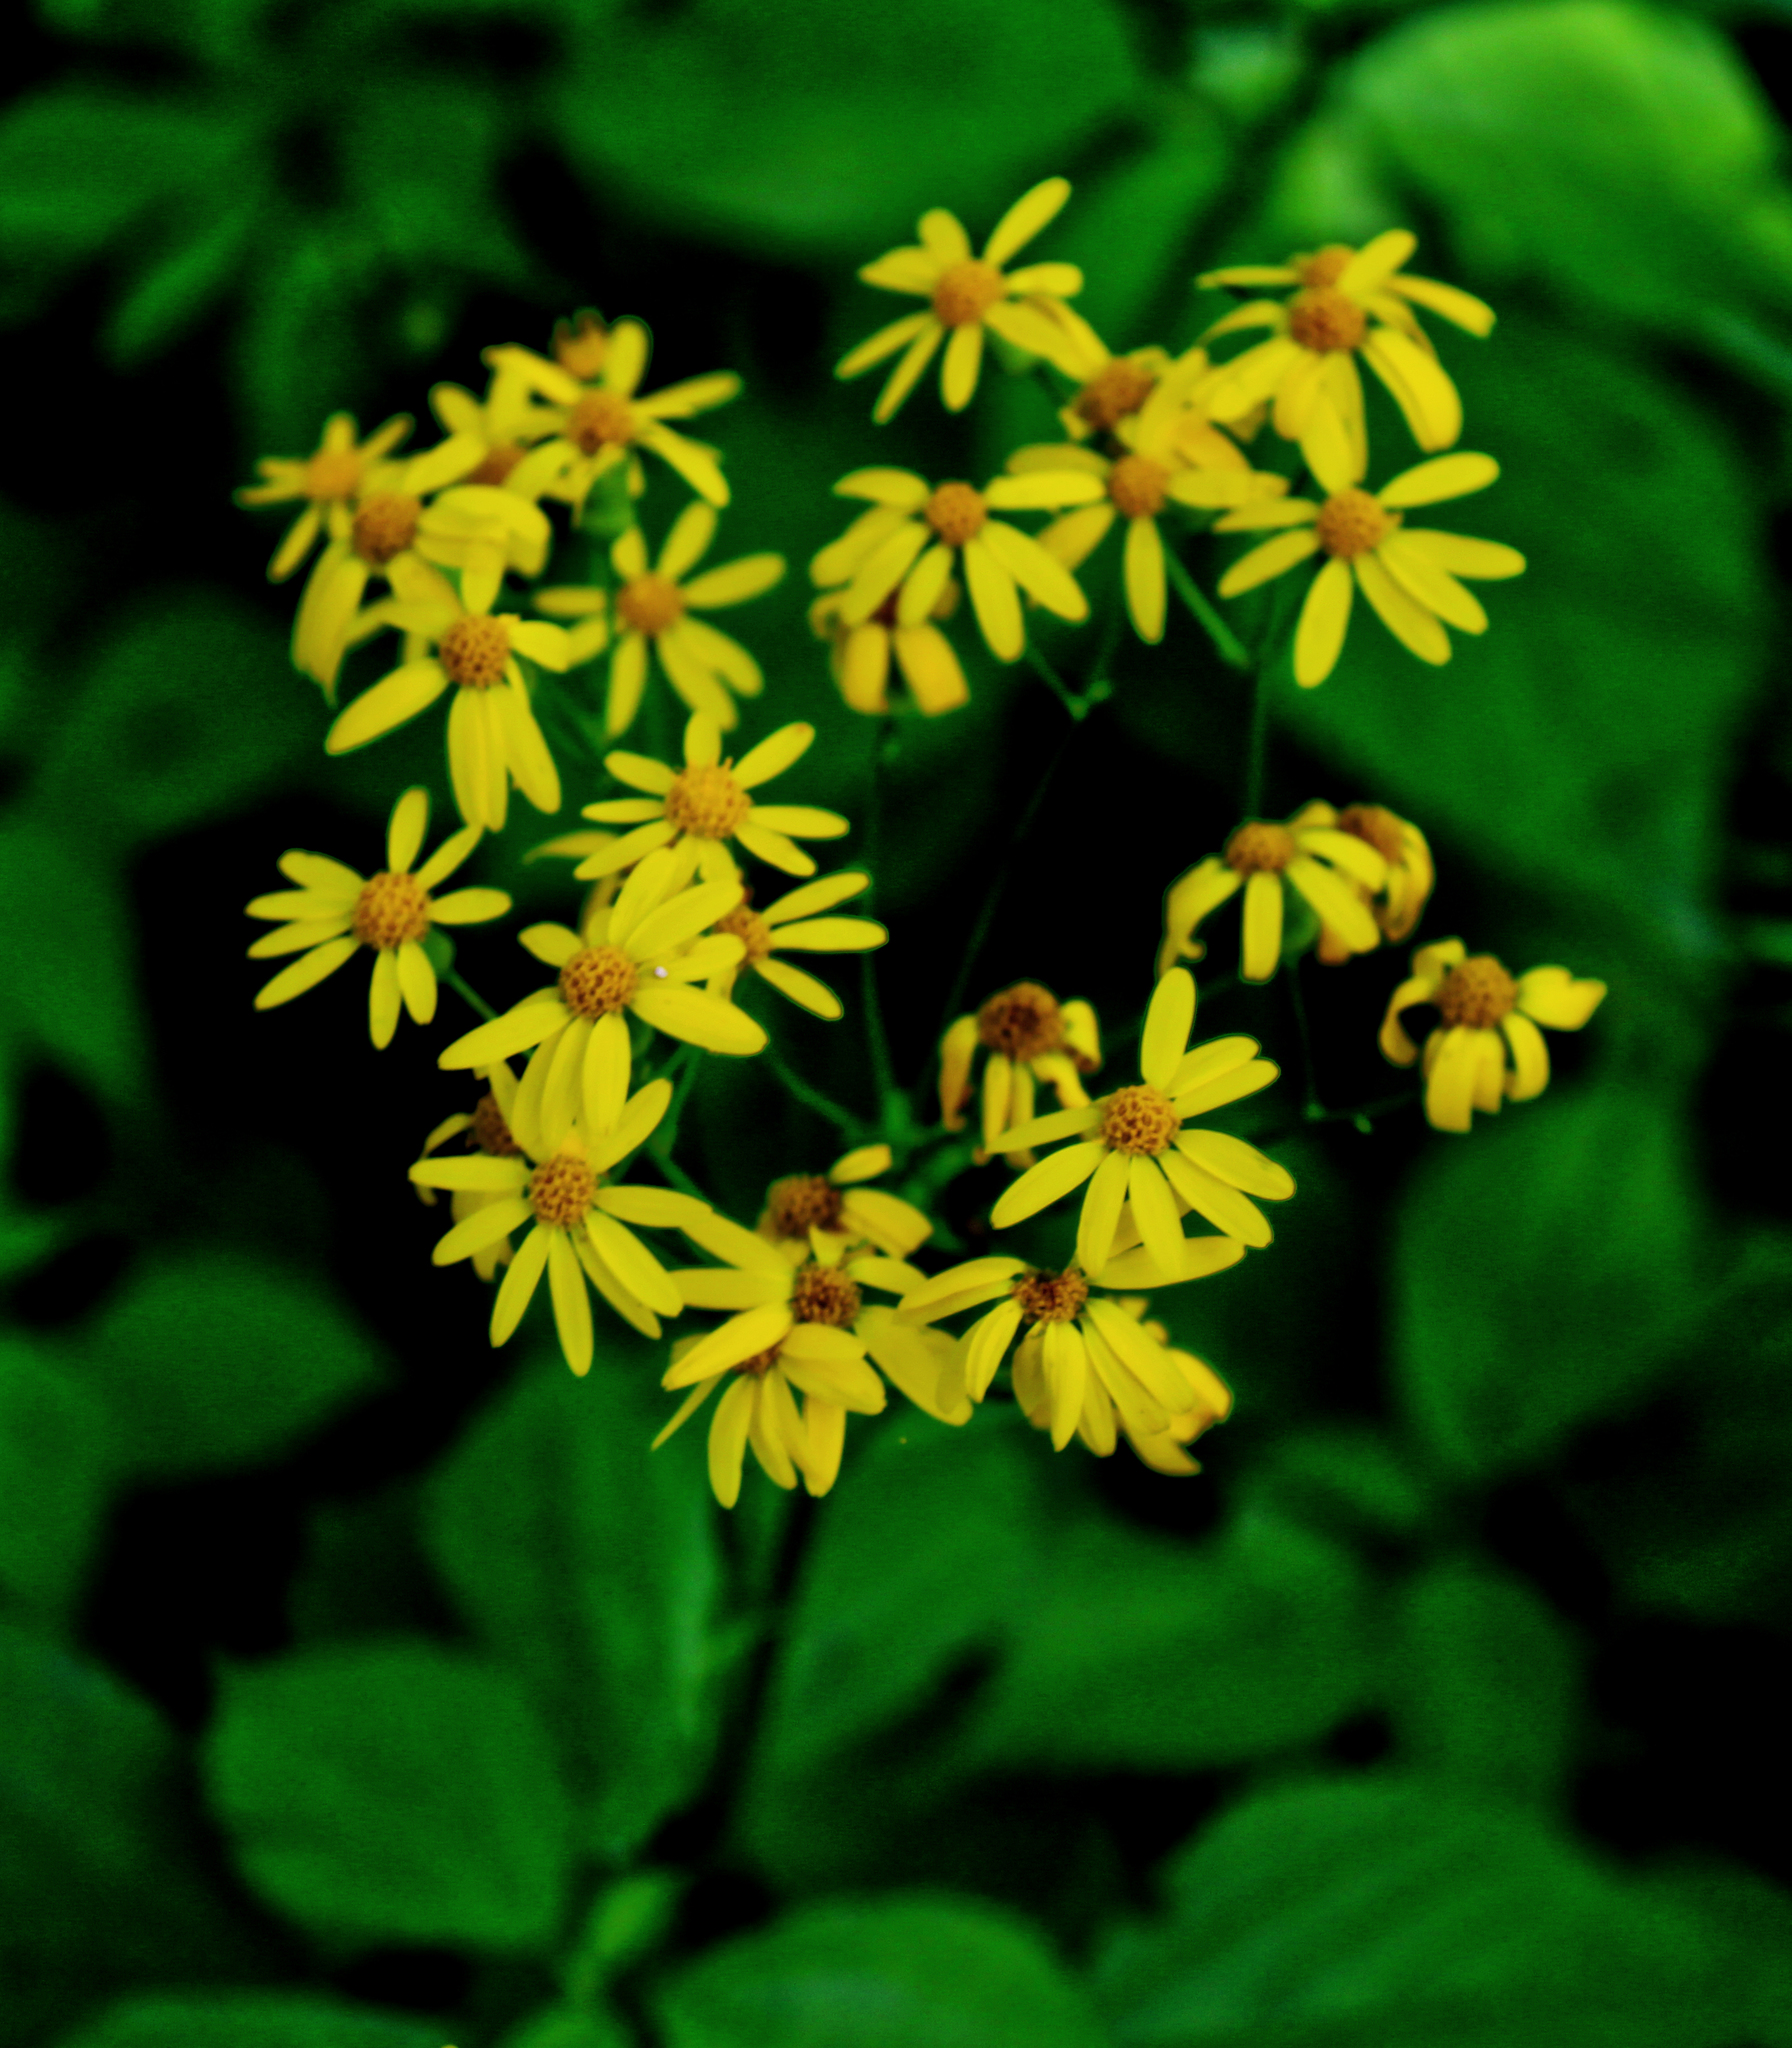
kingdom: Plantae
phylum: Tracheophyta
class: Magnoliopsida
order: Asterales
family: Asteraceae
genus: Packera
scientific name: Packera aurea
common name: Golden groundsel
